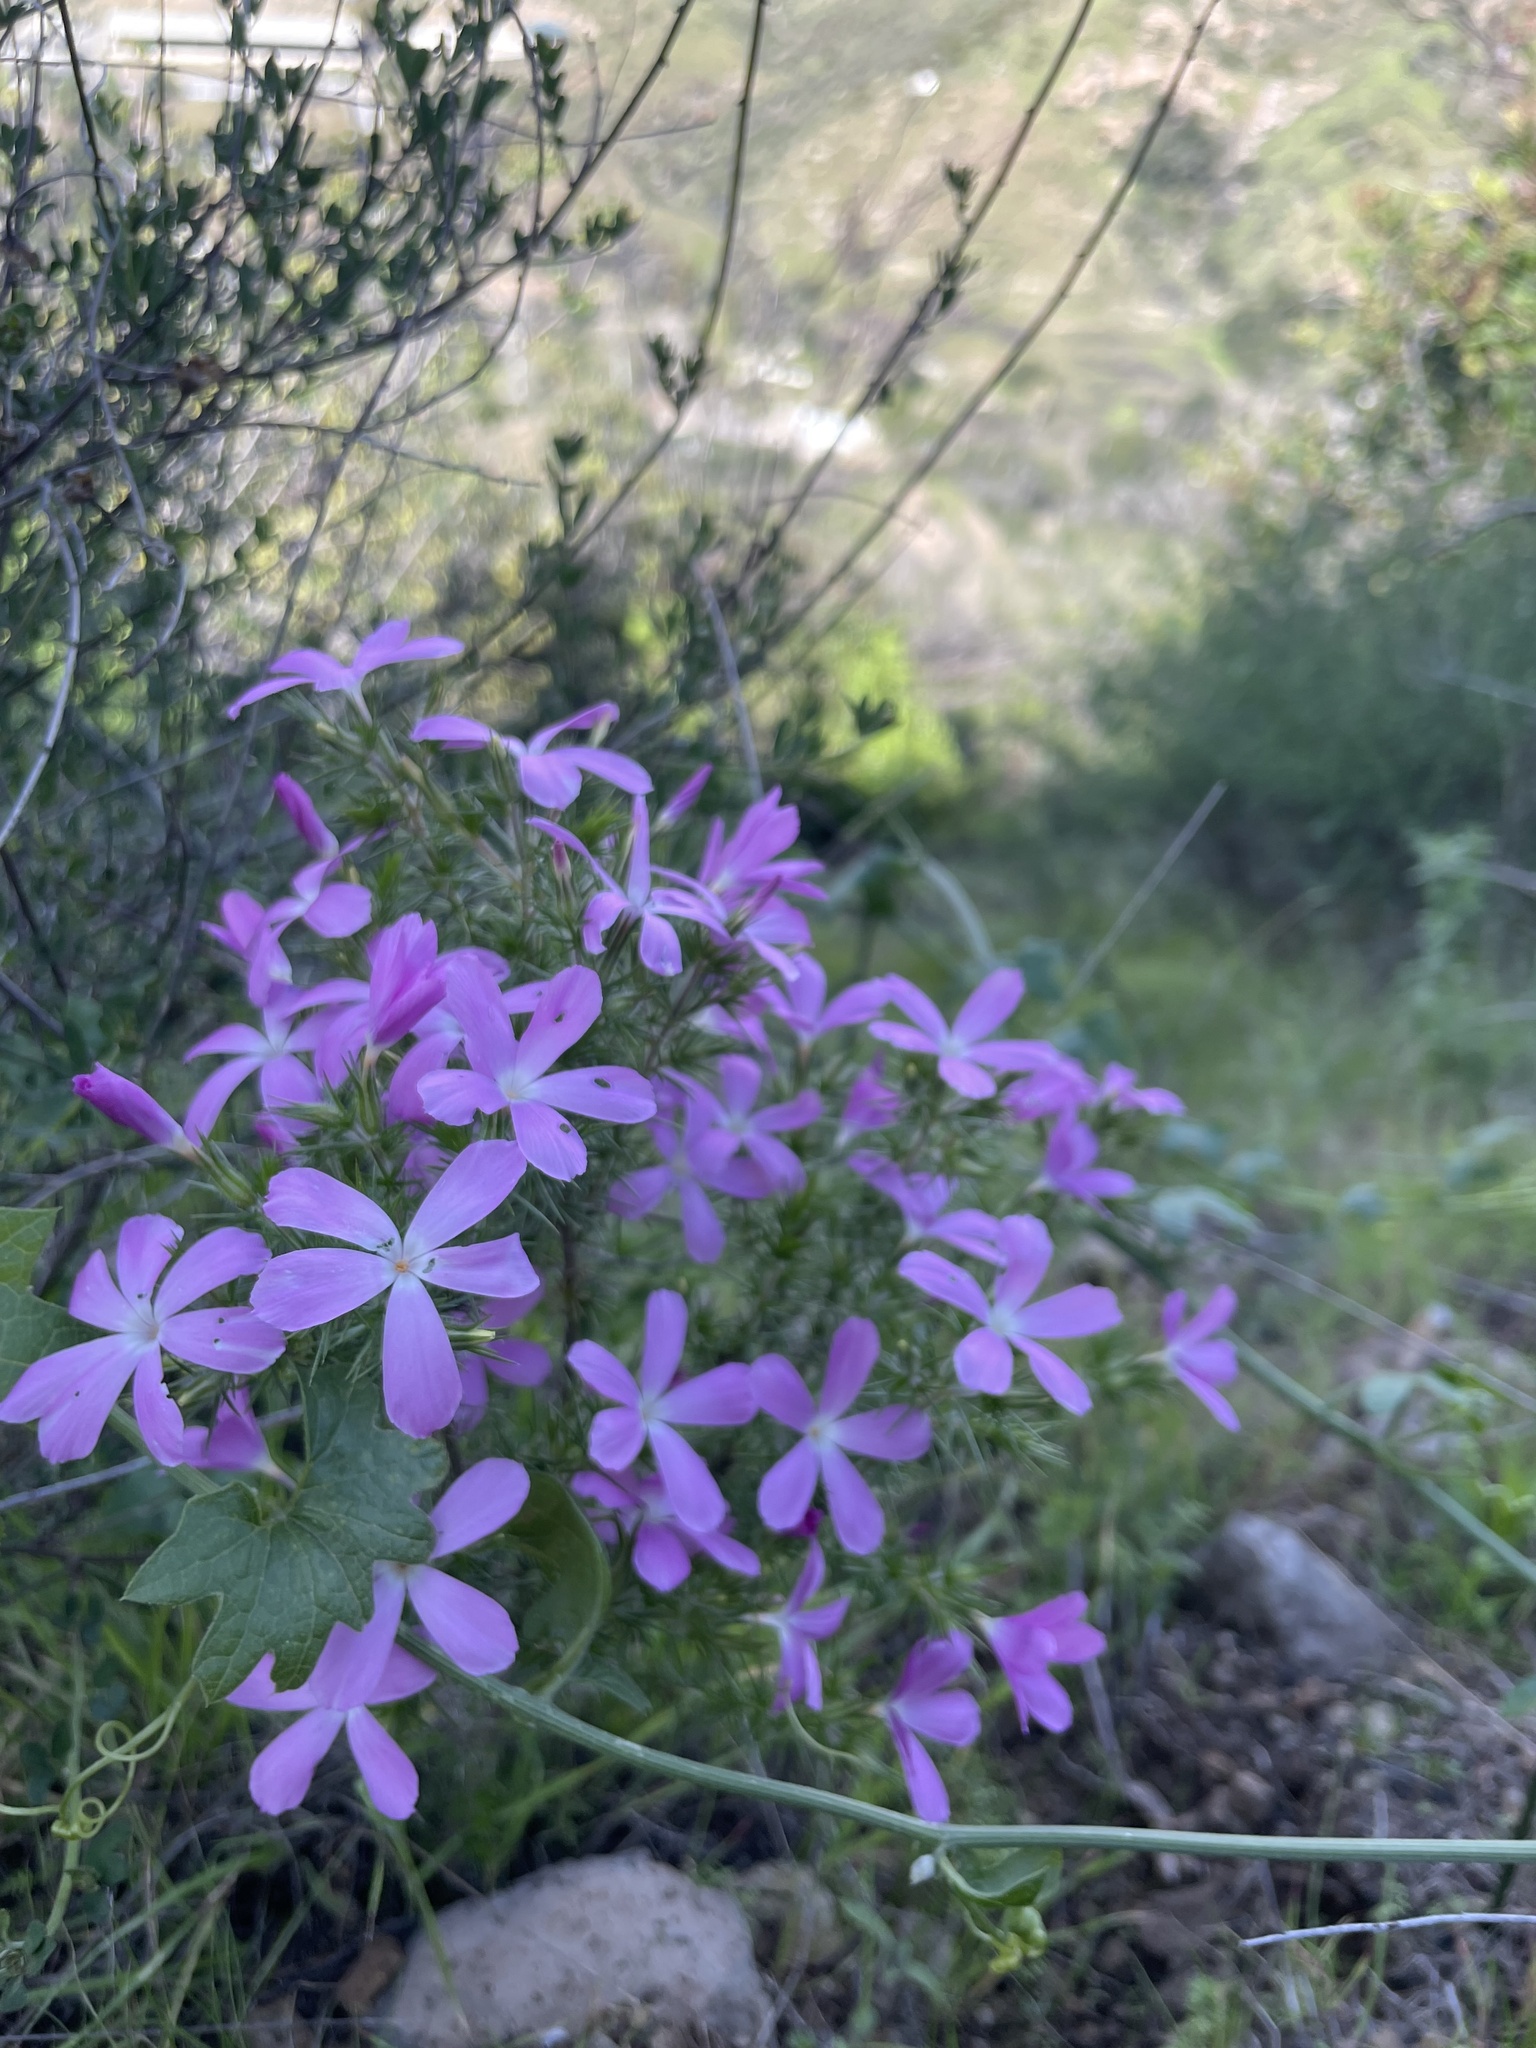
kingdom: Plantae
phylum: Tracheophyta
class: Magnoliopsida
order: Ericales
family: Polemoniaceae
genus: Linanthus
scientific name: Linanthus californicus
